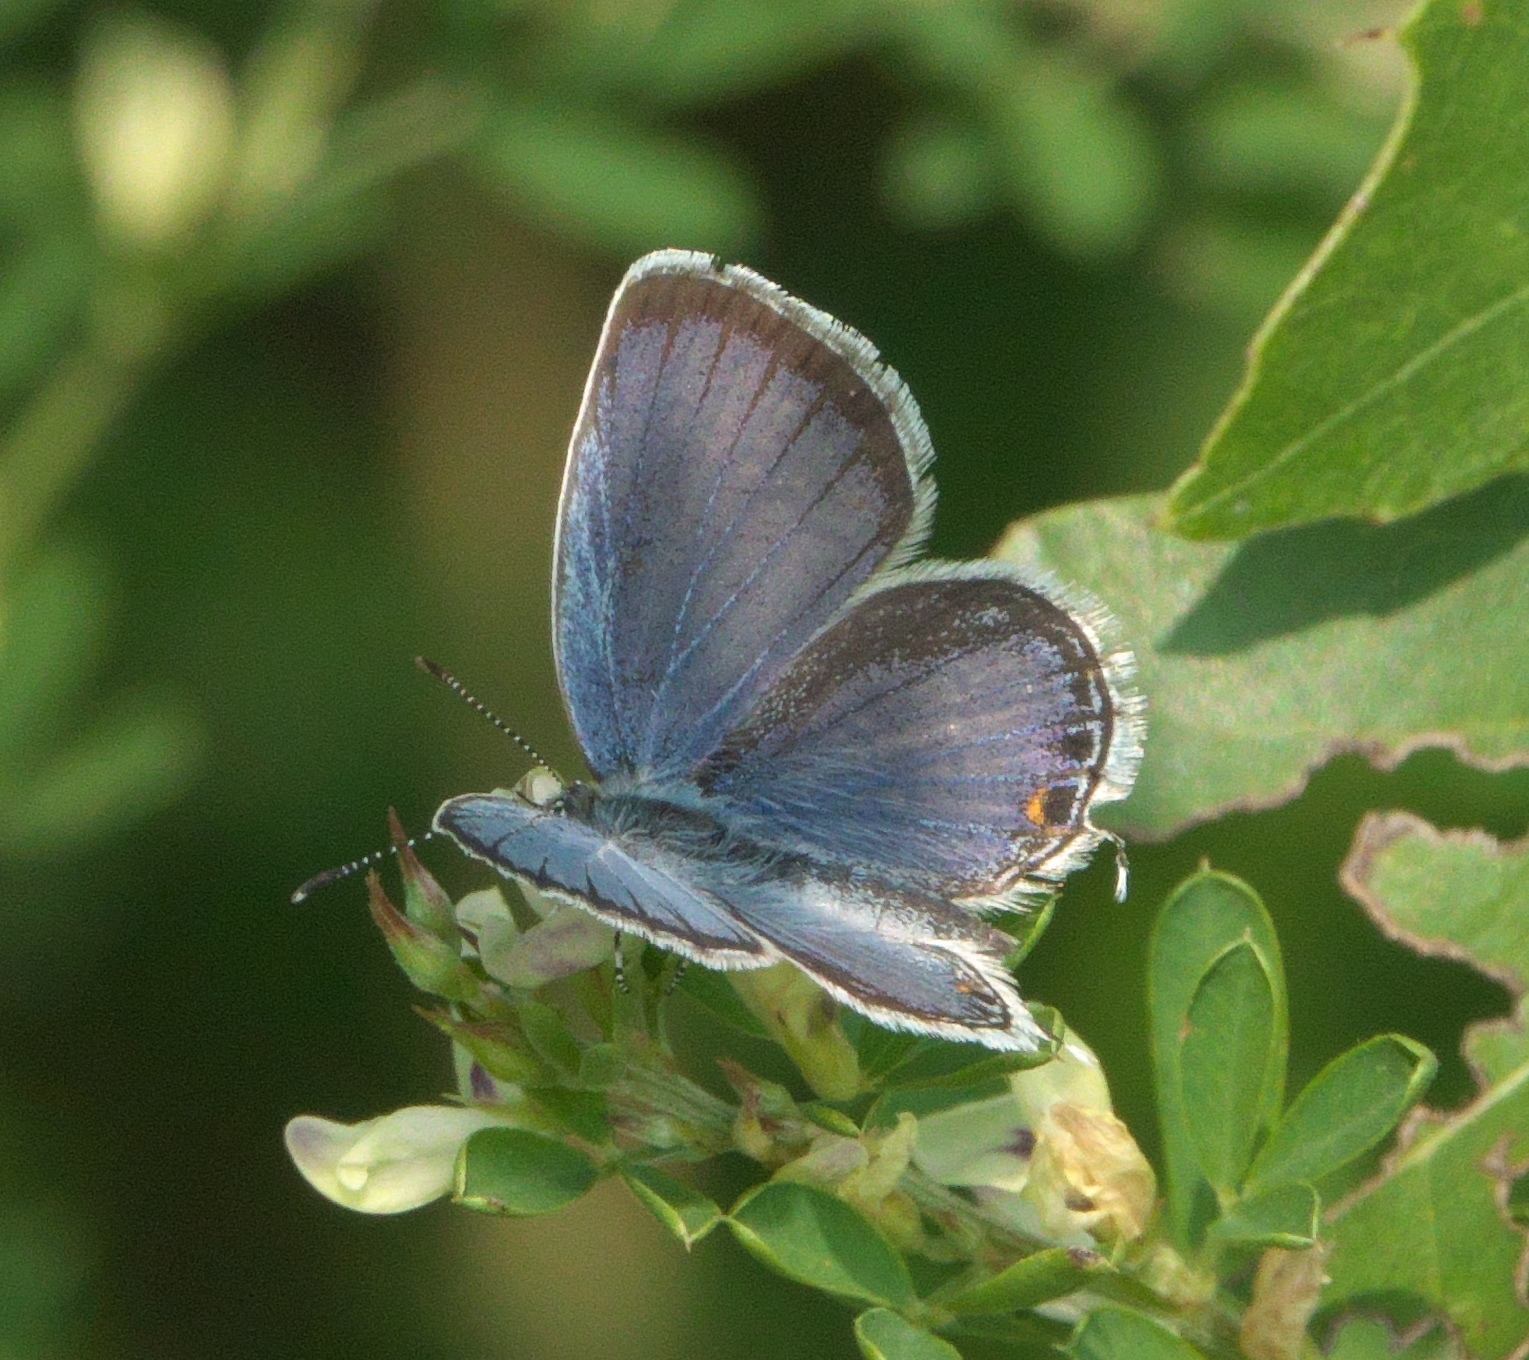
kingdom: Animalia
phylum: Arthropoda
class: Insecta
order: Lepidoptera
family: Lycaenidae
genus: Elkalyce
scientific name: Elkalyce comyntas
